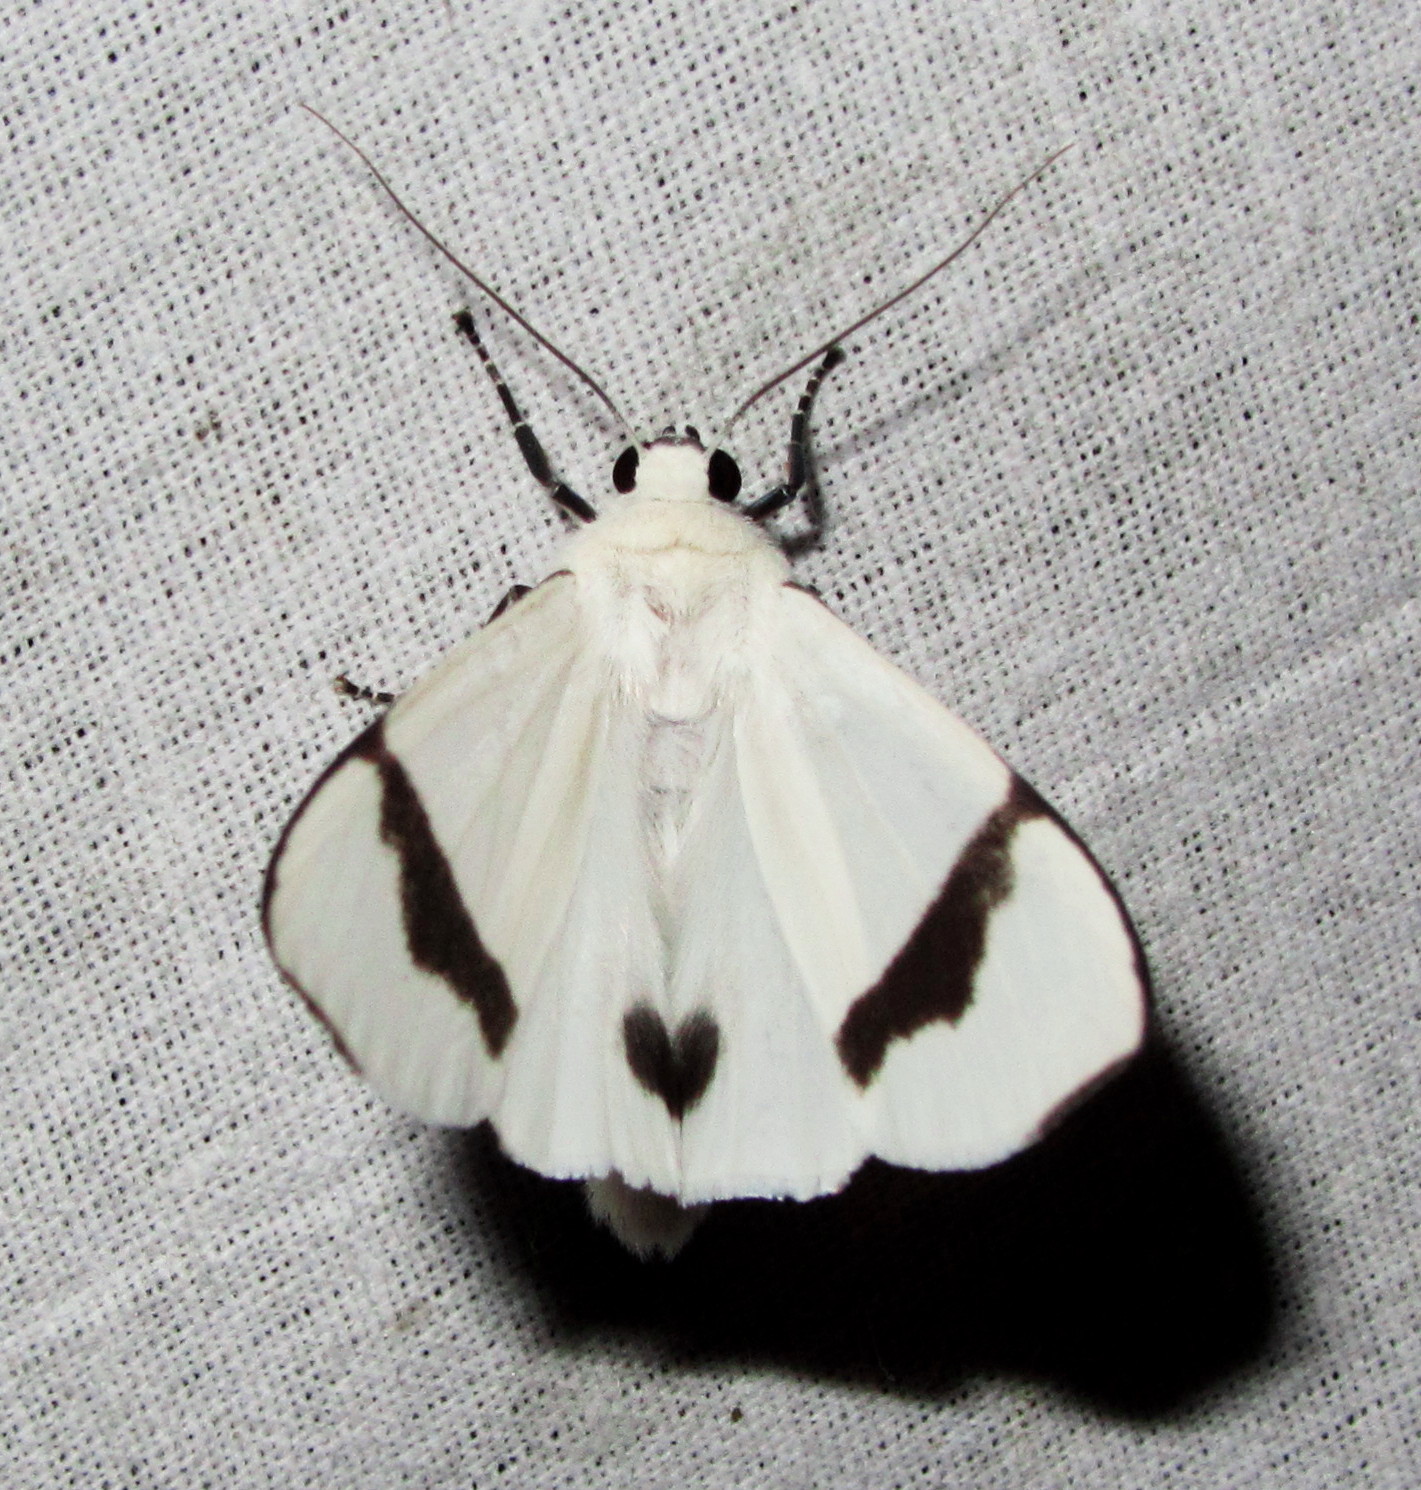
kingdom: Animalia
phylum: Arthropoda
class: Insecta
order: Lepidoptera
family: Erebidae
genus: Vamuna
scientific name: Vamuna remelana
